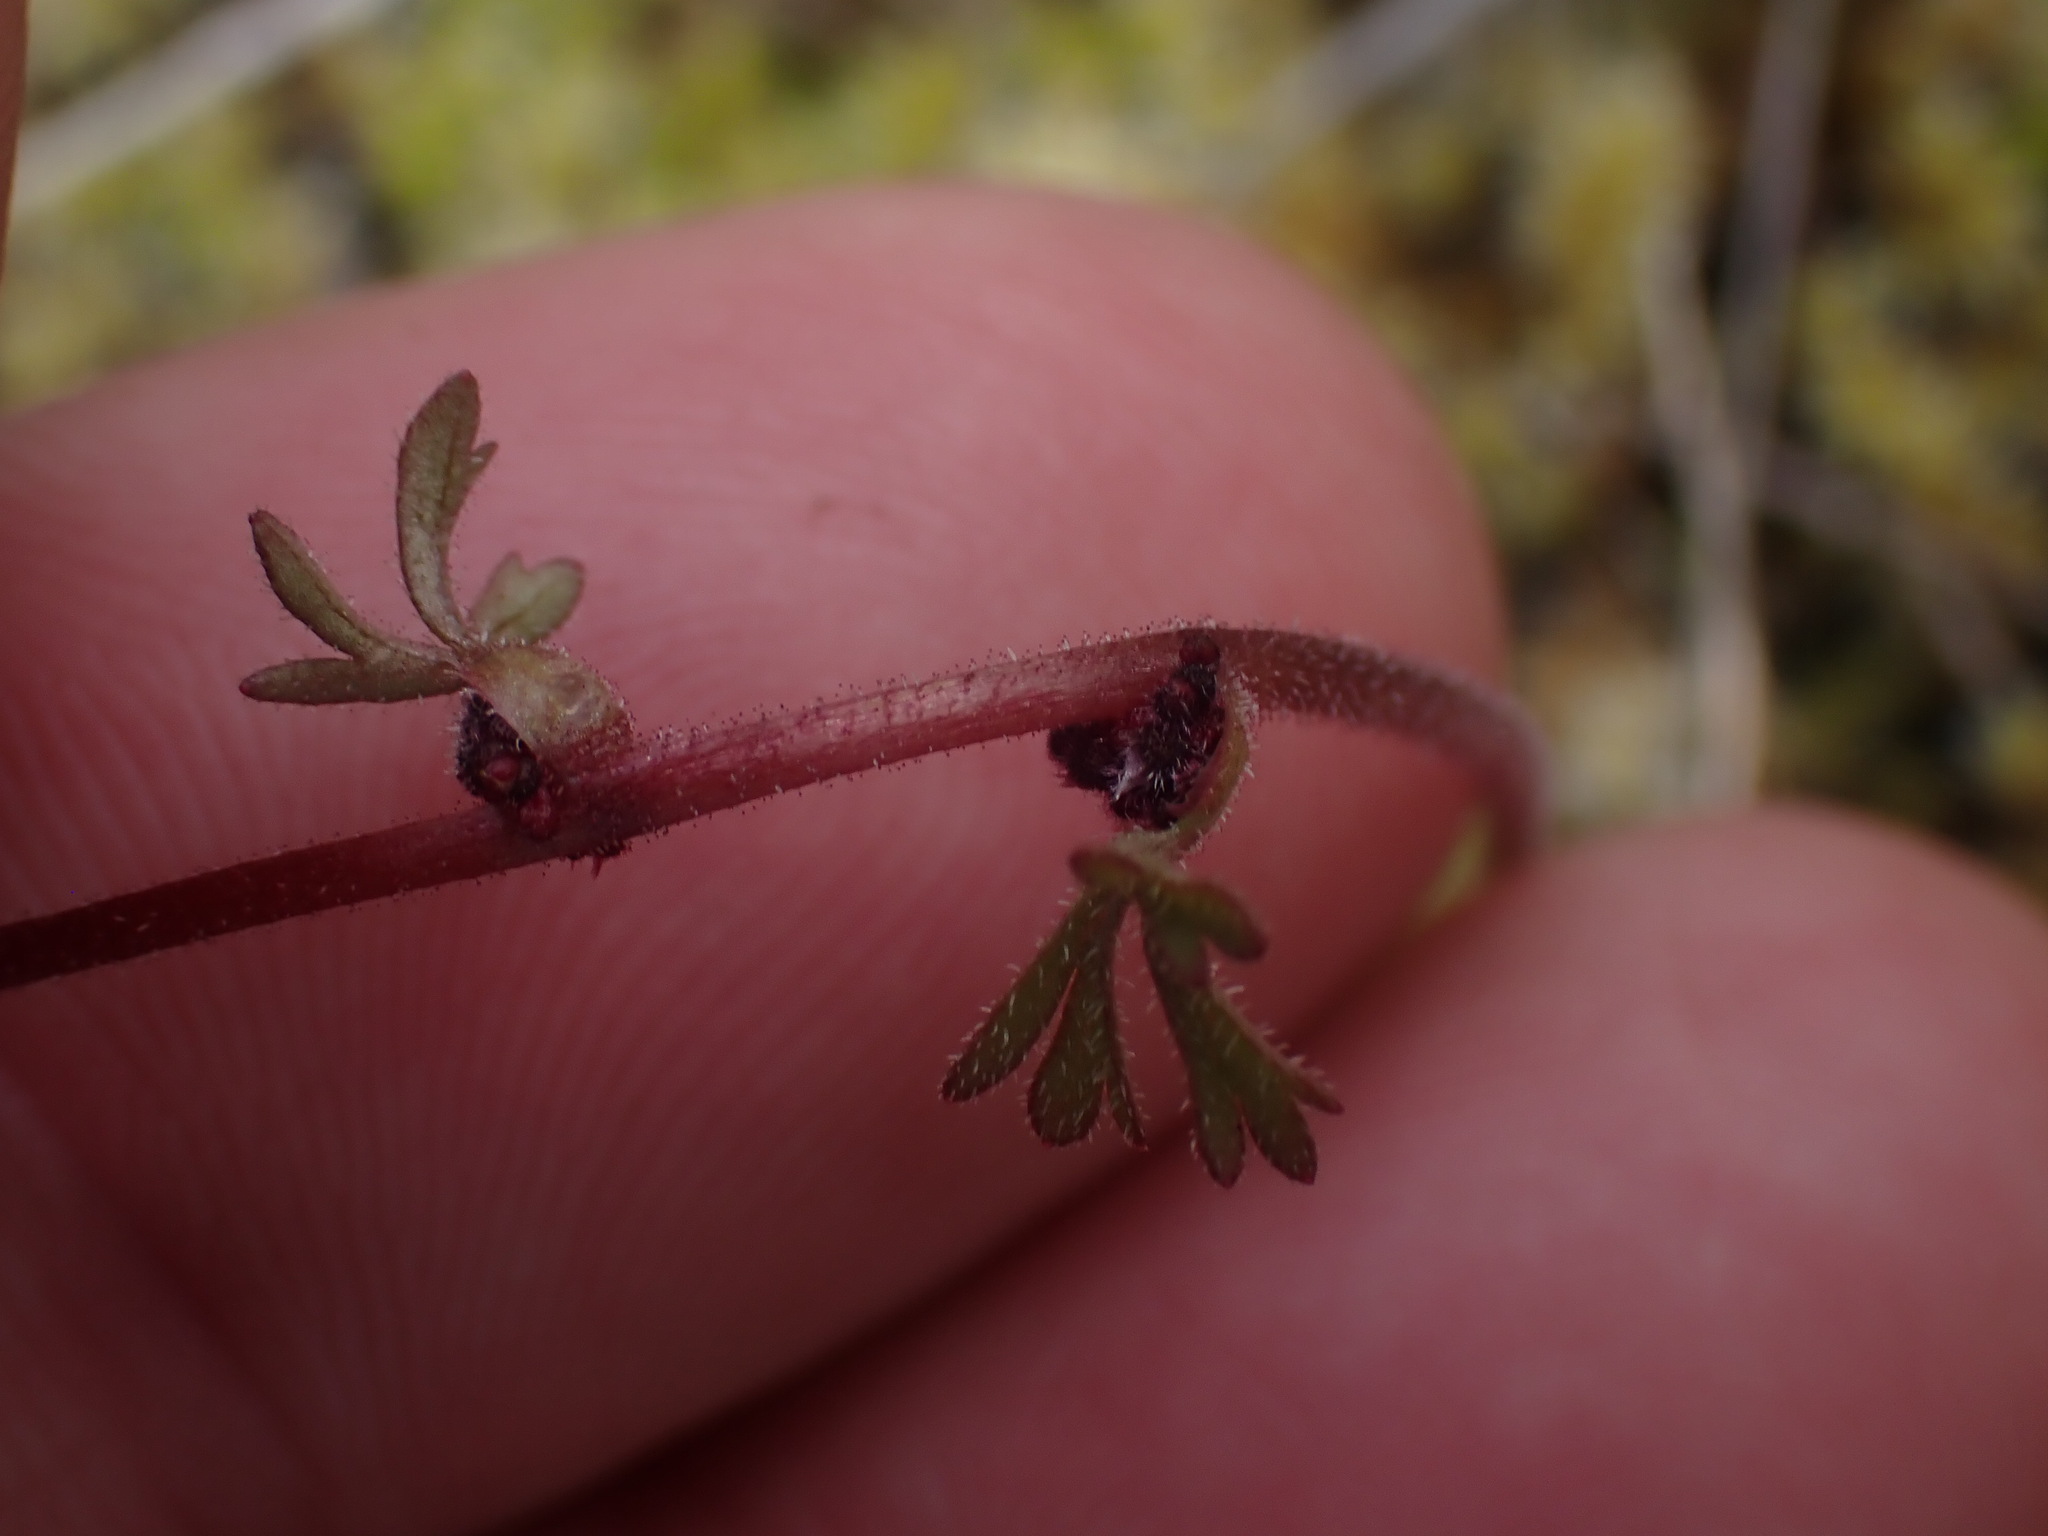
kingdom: Plantae
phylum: Tracheophyta
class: Magnoliopsida
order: Saxifragales
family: Saxifragaceae
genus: Lithophragma
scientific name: Lithophragma glabrum
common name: Bulbous prairie-star
